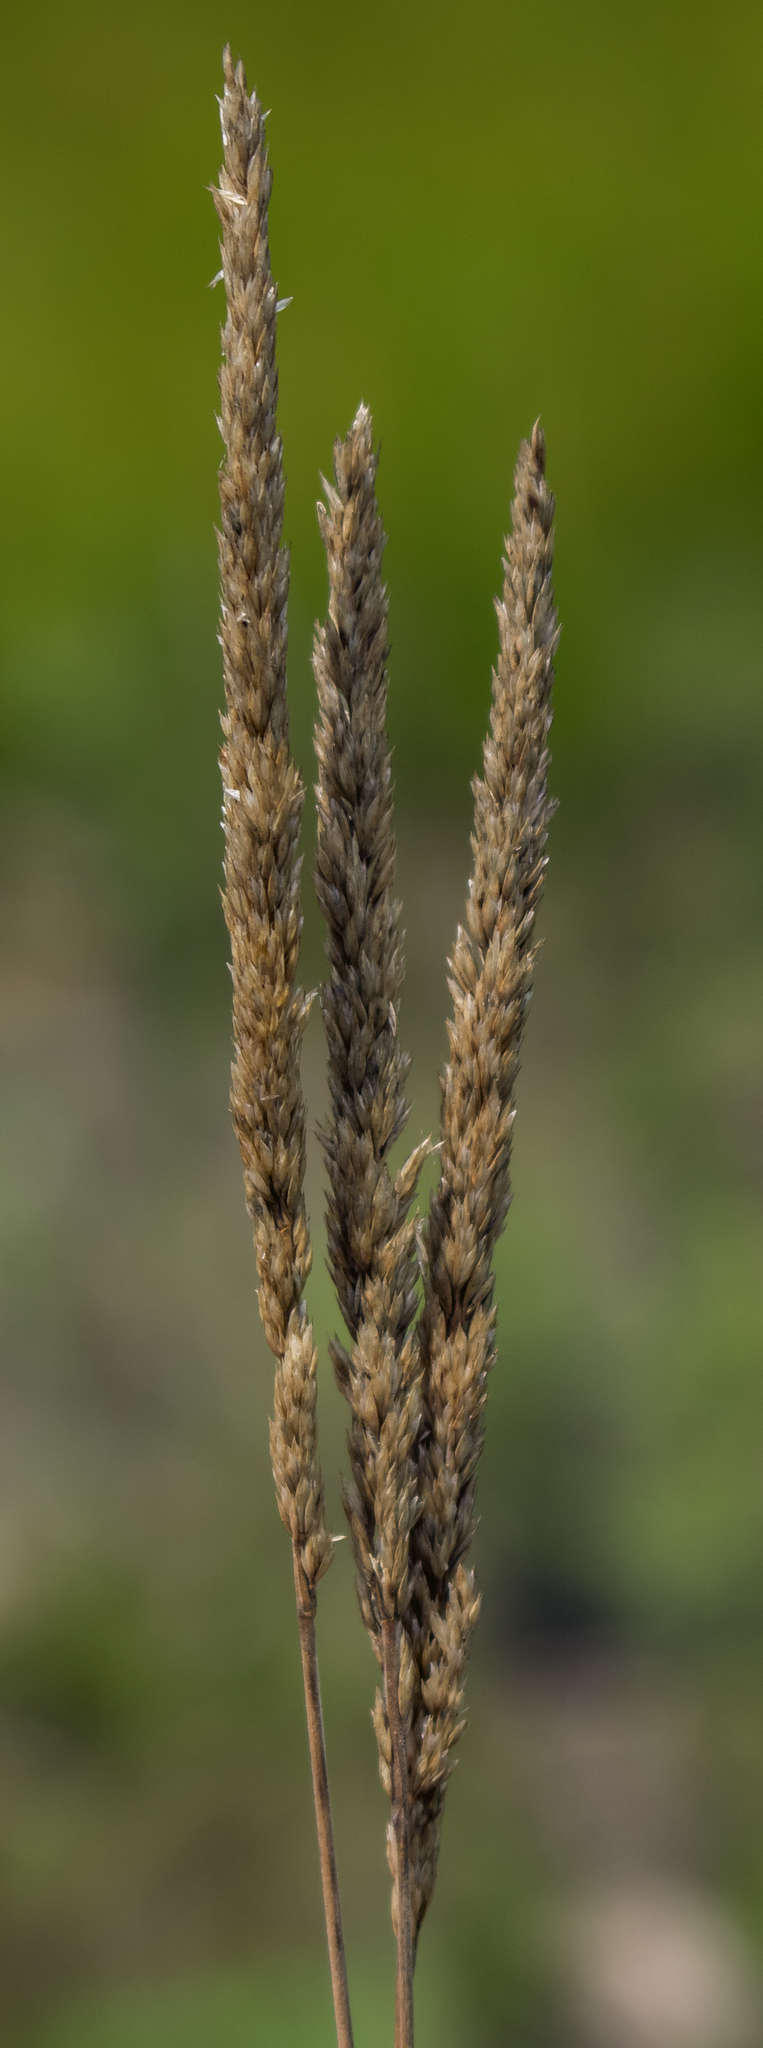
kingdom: Plantae
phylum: Tracheophyta
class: Liliopsida
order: Poales
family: Poaceae
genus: Phalaris
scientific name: Phalaris arundinacea
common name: Reed canary-grass
